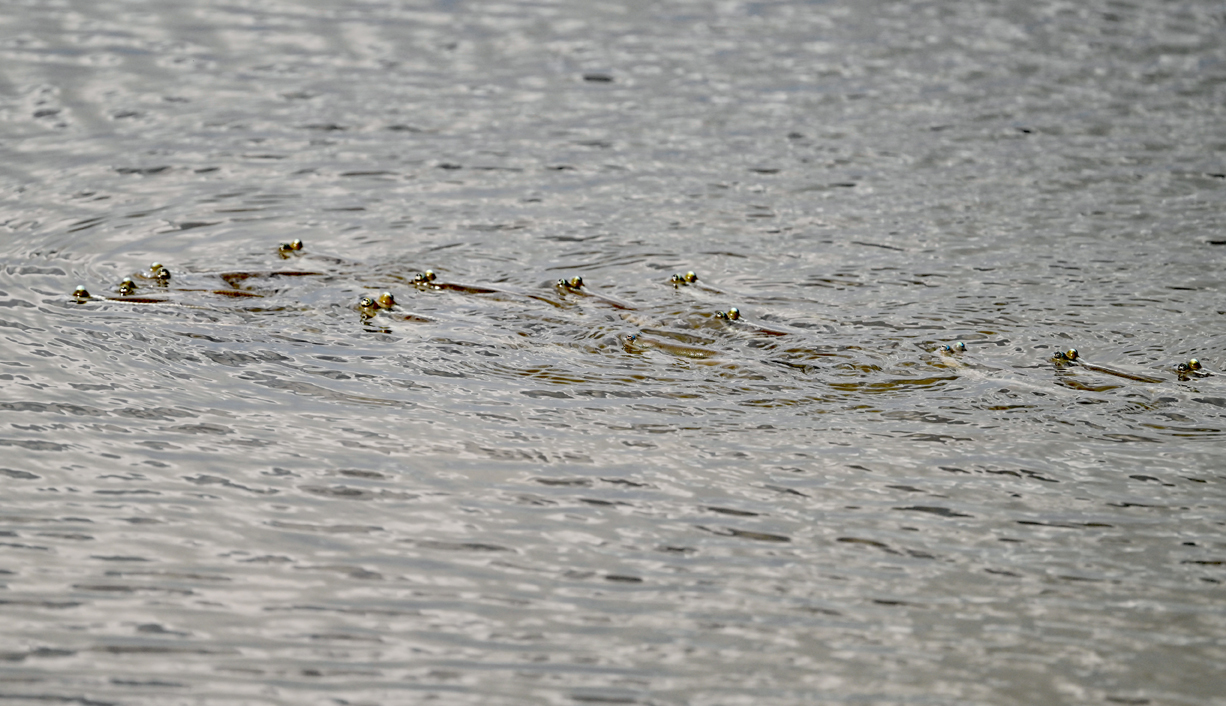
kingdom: Animalia
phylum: Chordata
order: Cyprinodontiformes
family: Anablepidae
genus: Anableps
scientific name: Anableps anableps
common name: Foureye
